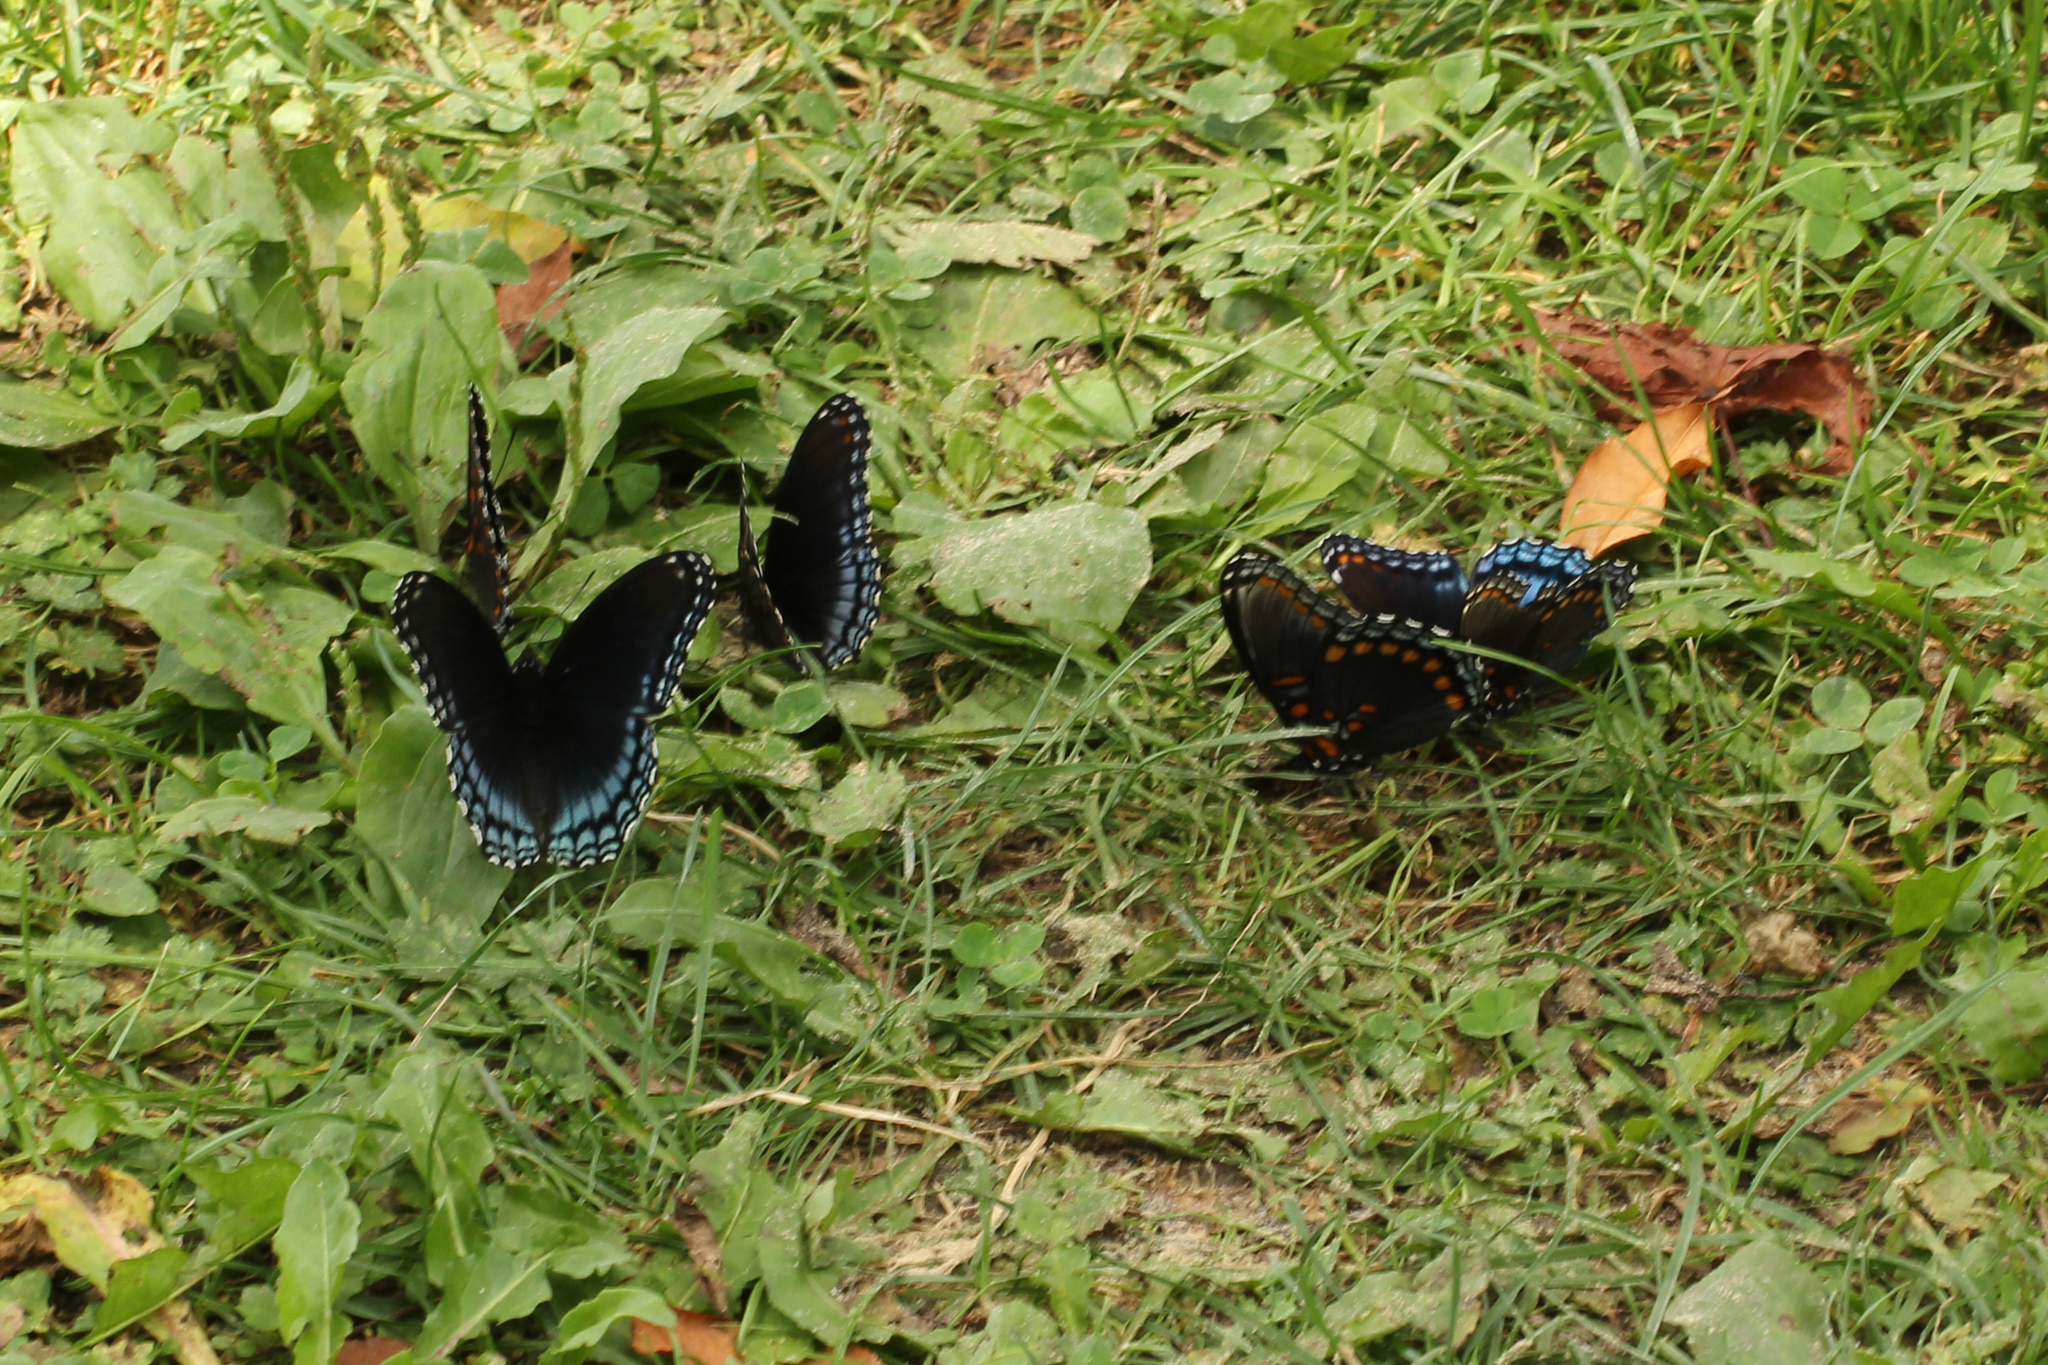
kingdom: Animalia
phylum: Arthropoda
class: Insecta
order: Lepidoptera
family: Nymphalidae
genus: Limenitis
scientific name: Limenitis astyanax
